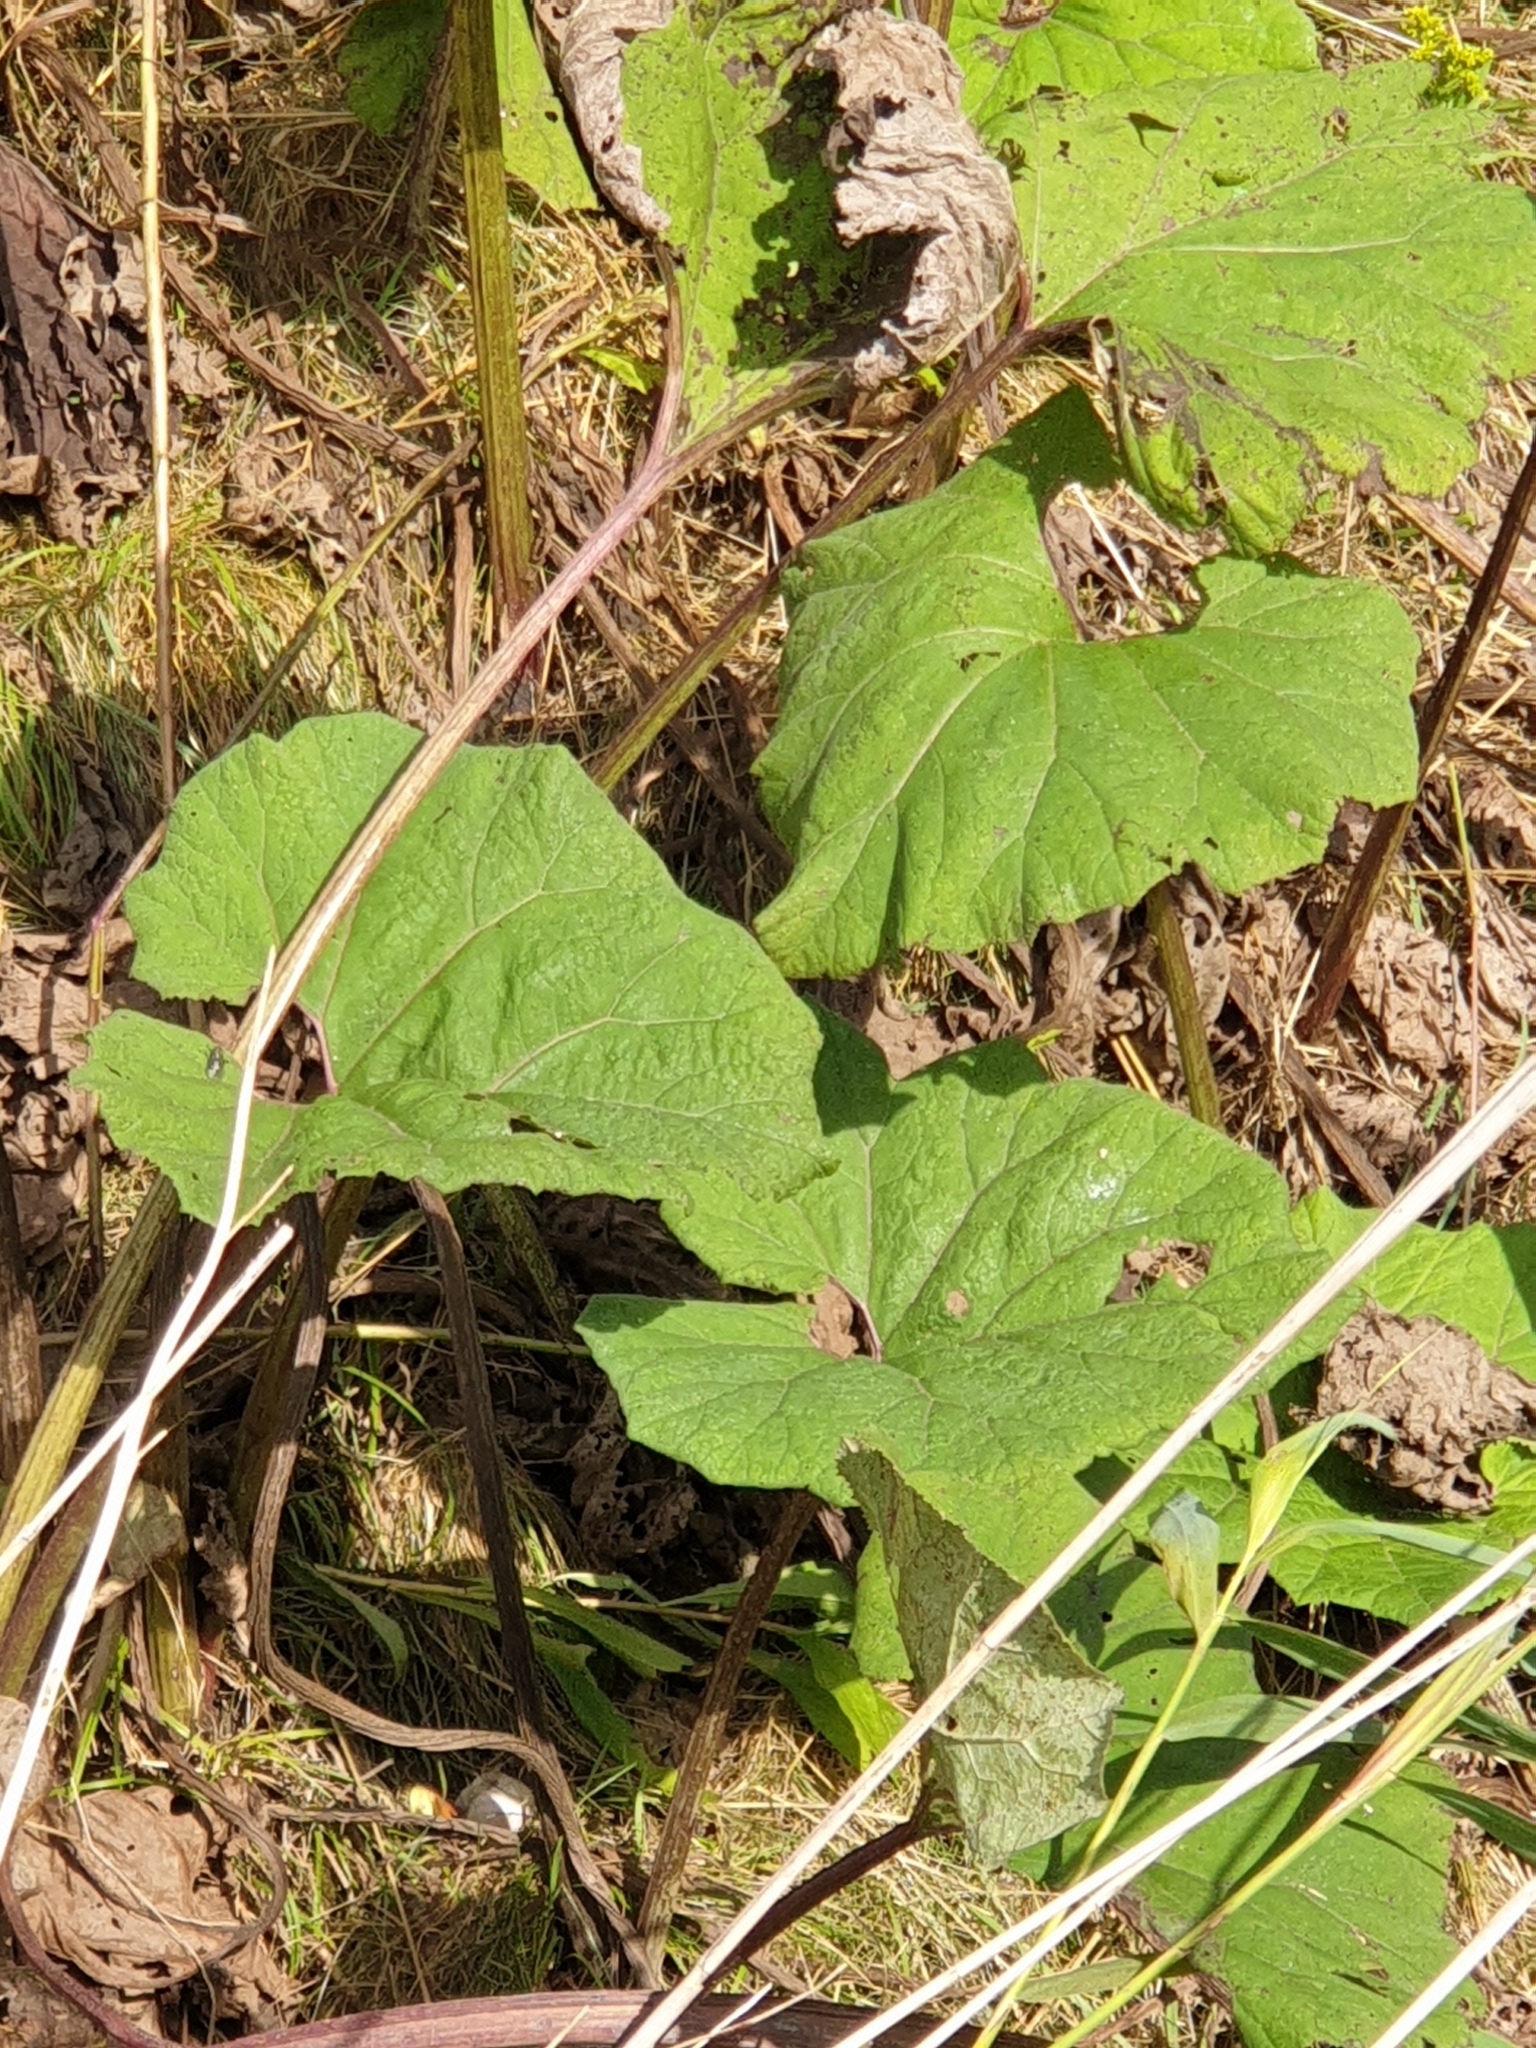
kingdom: Plantae
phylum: Tracheophyta
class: Magnoliopsida
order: Asterales
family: Asteraceae
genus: Petasites
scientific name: Petasites hybridus
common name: Butterbur
